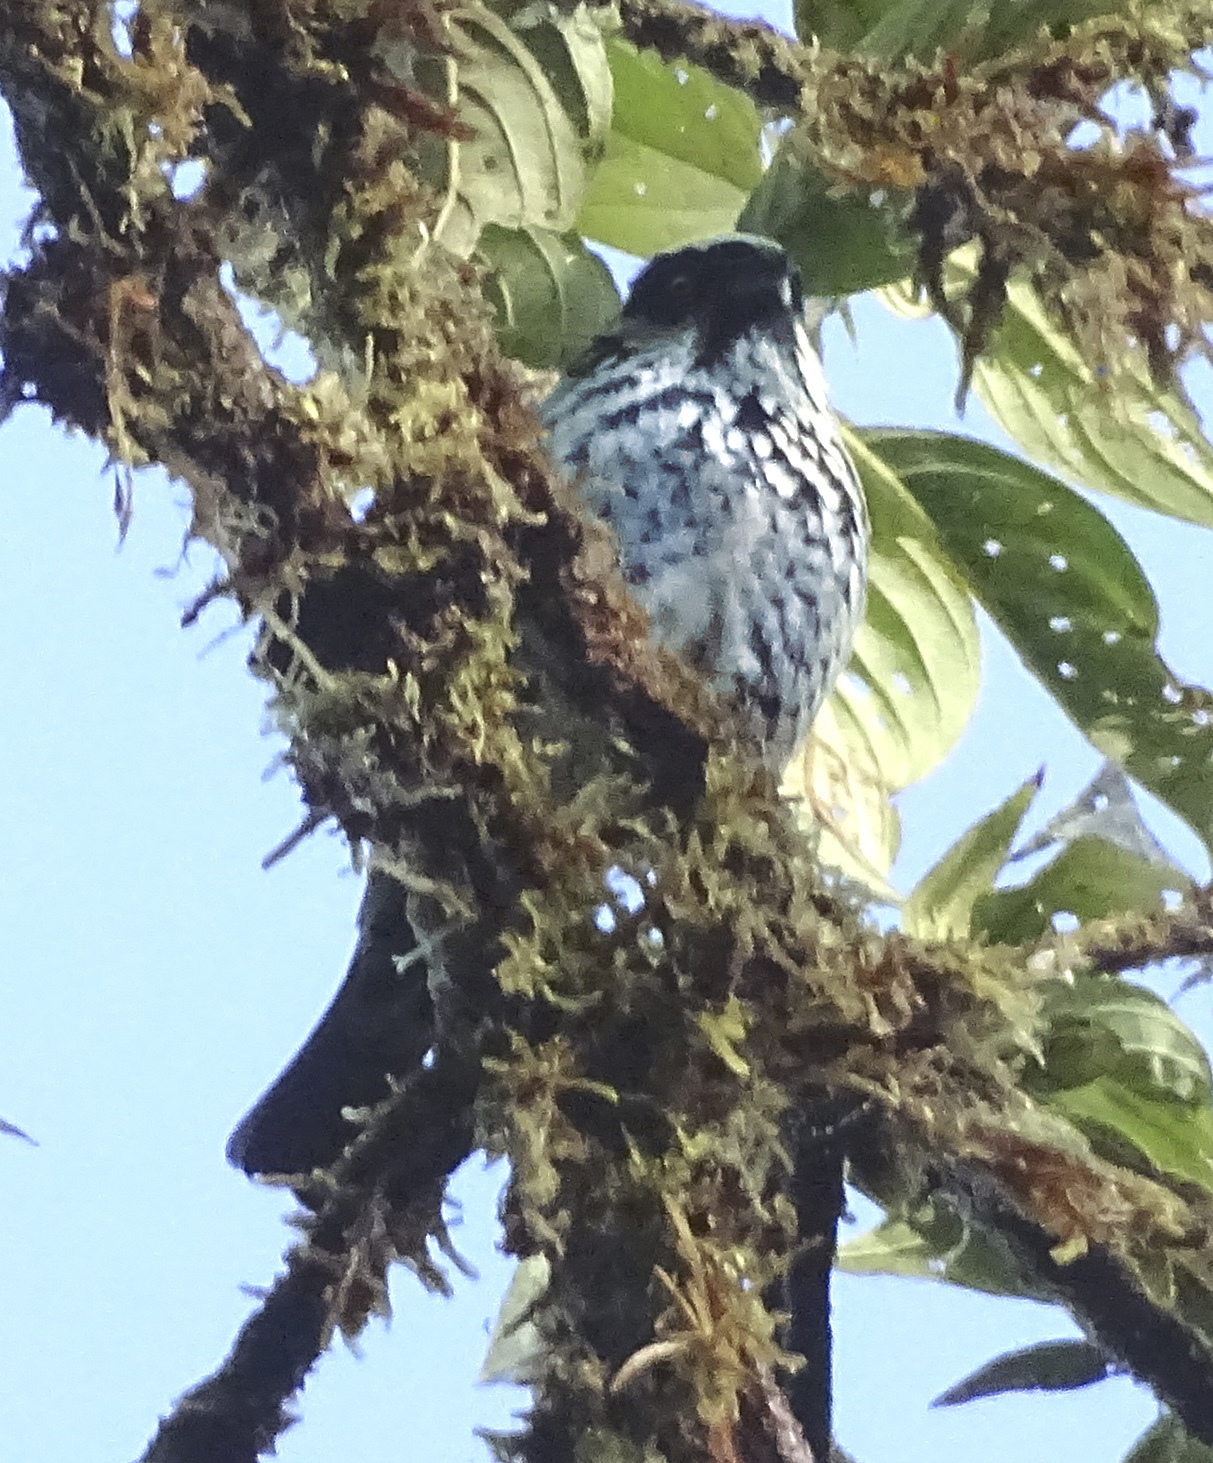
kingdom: Animalia
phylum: Chordata
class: Aves
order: Passeriformes
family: Thraupidae
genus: Tangara
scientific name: Tangara nigroviridis
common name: Beryl-spangled tanager
